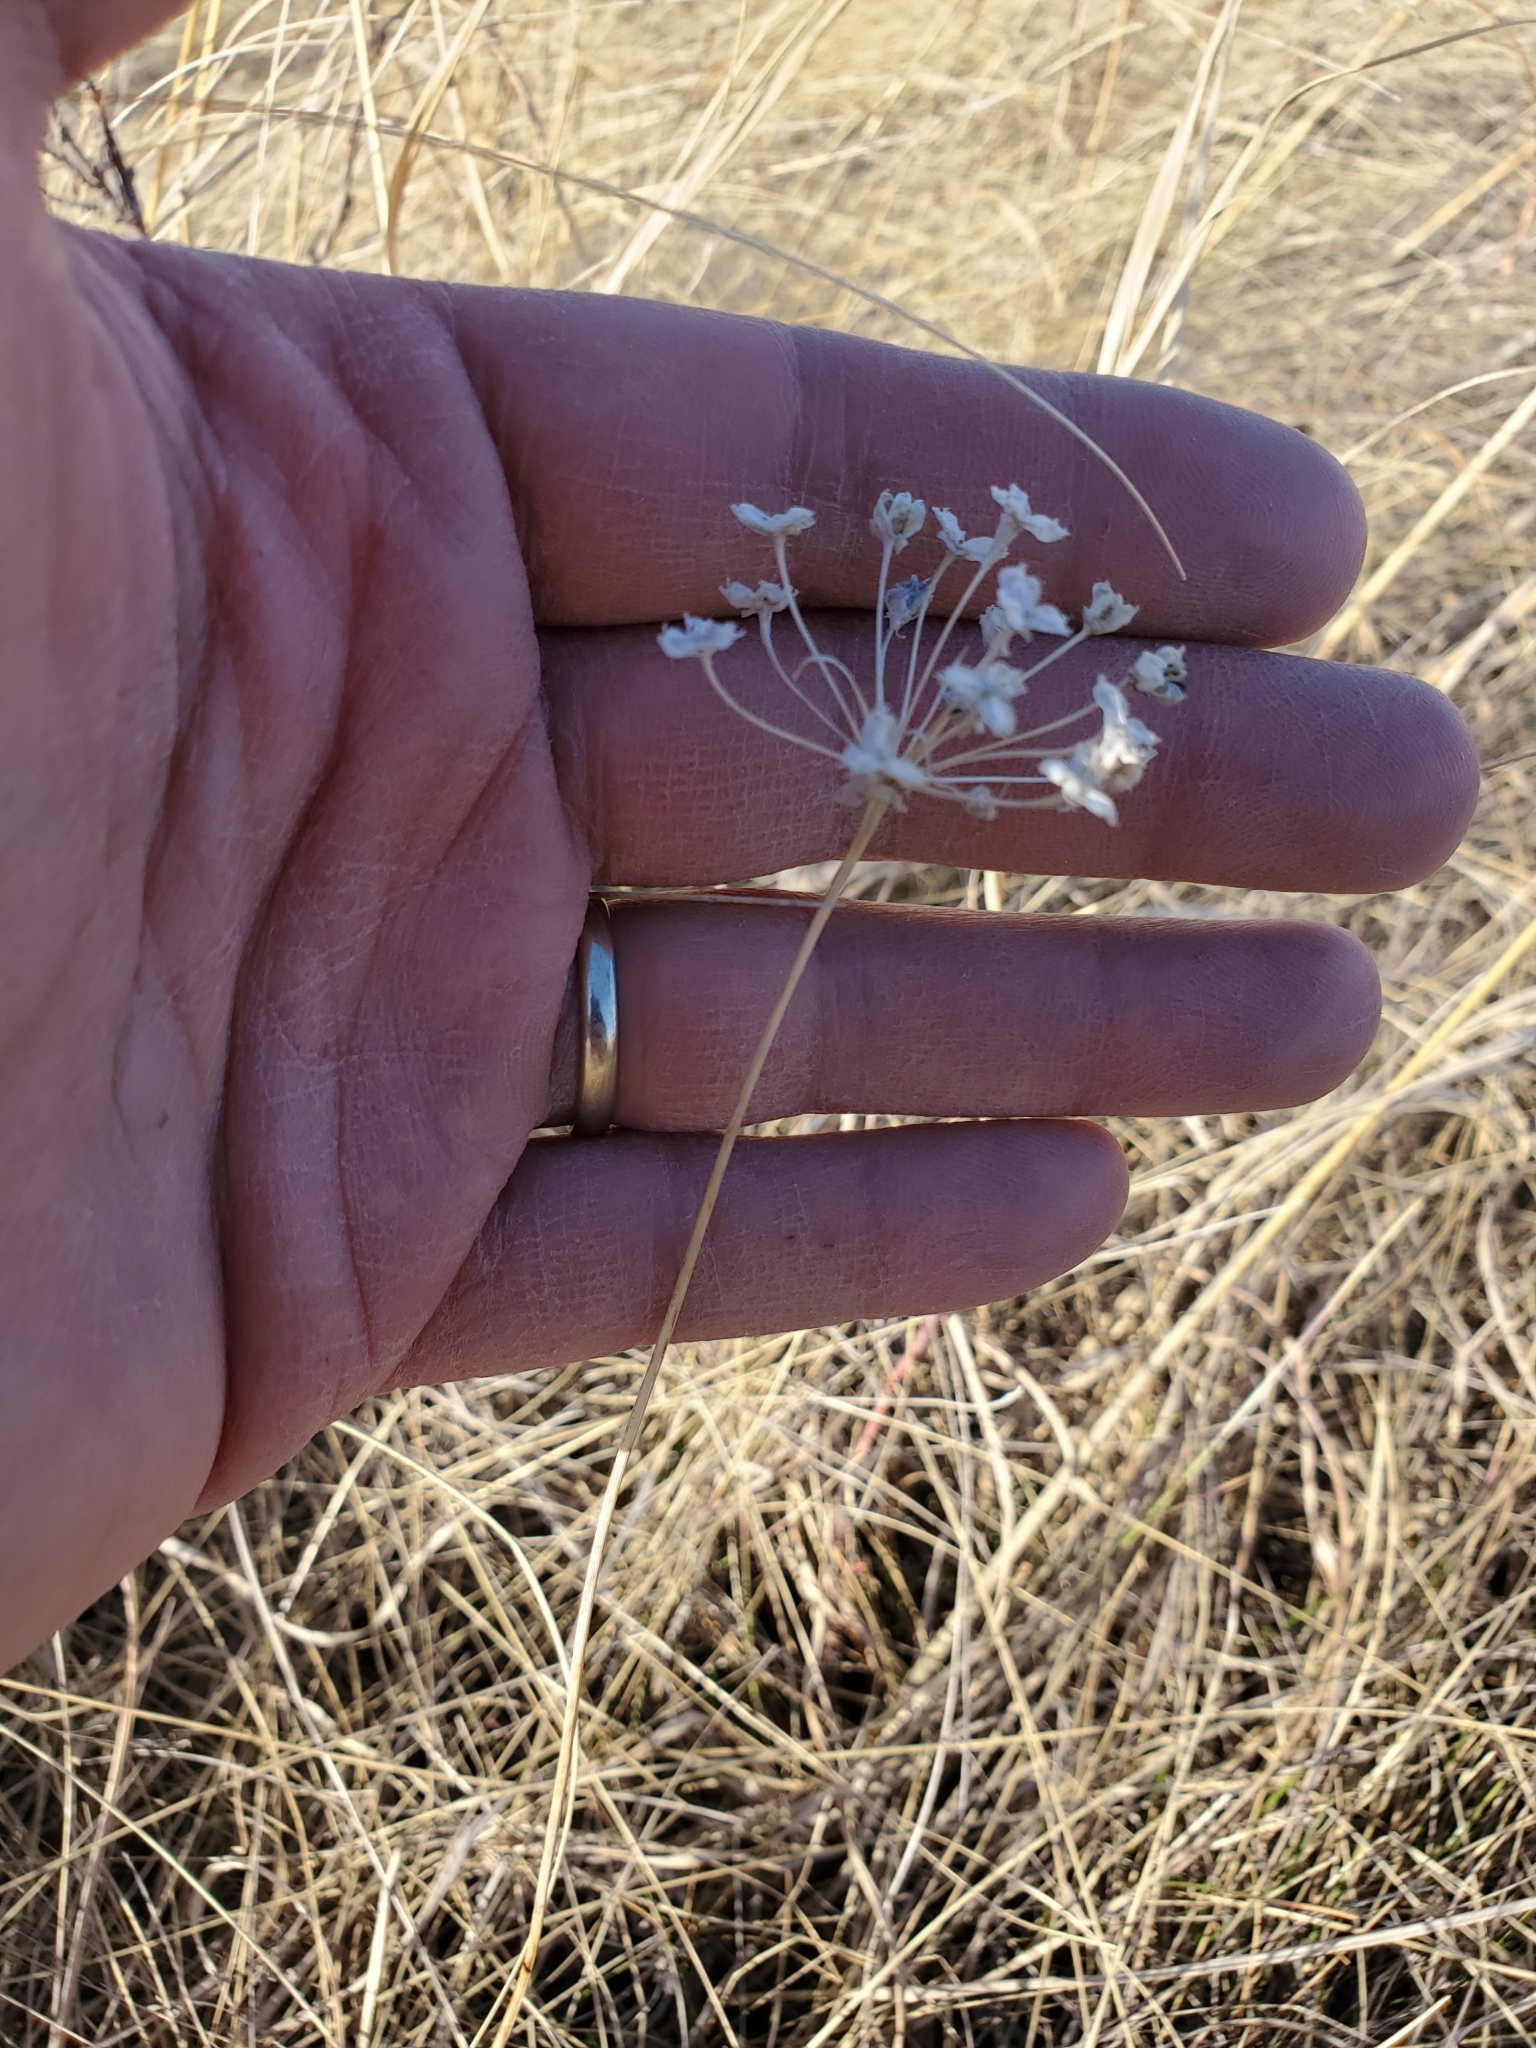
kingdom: Plantae
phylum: Tracheophyta
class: Liliopsida
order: Asparagales
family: Amaryllidaceae
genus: Allium
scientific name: Allium stellatum
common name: Autumn onion
